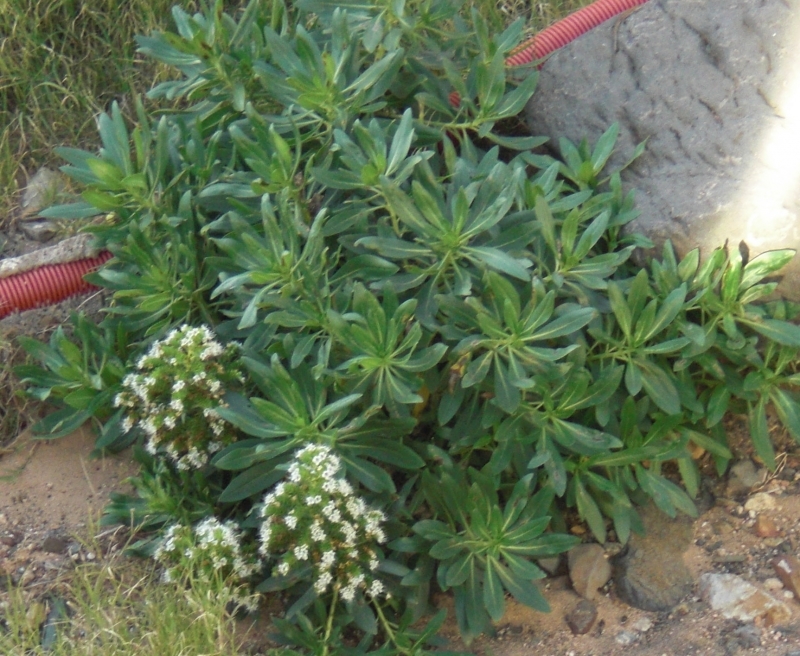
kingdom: Plantae
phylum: Tracheophyta
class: Magnoliopsida
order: Boraginales
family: Boraginaceae
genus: Echium
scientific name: Echium famarae
